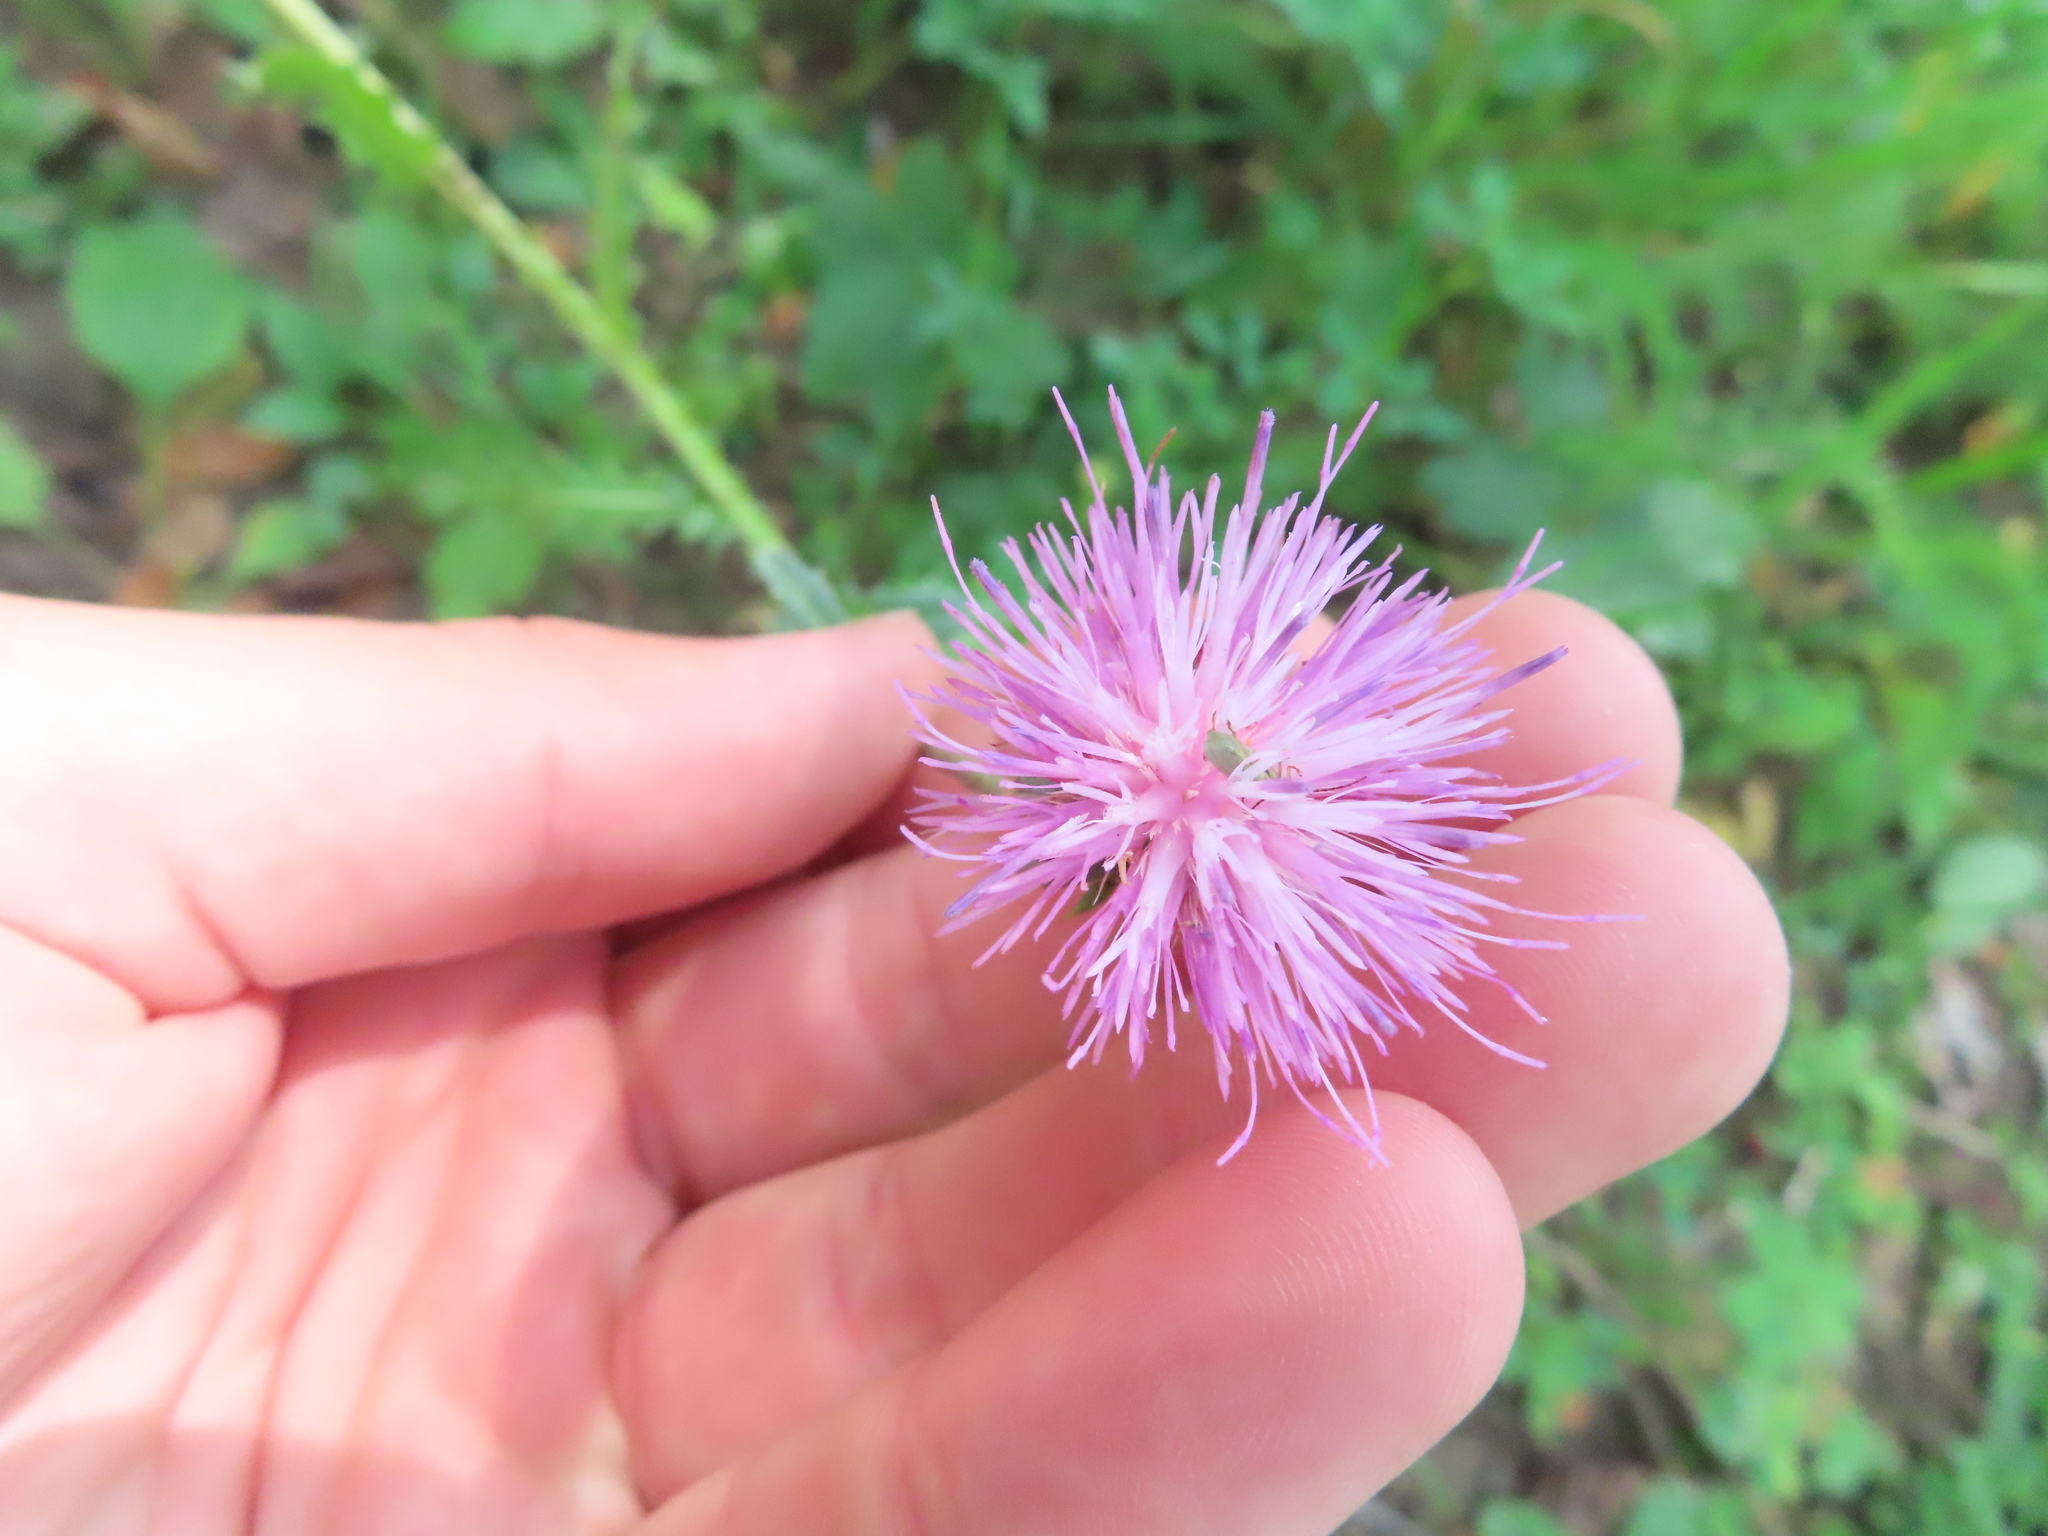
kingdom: Animalia
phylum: Arthropoda
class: Insecta
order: Coleoptera
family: Chrysomelidae
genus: Diabrotica
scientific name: Diabrotica barberi
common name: Northern corn rootworm
